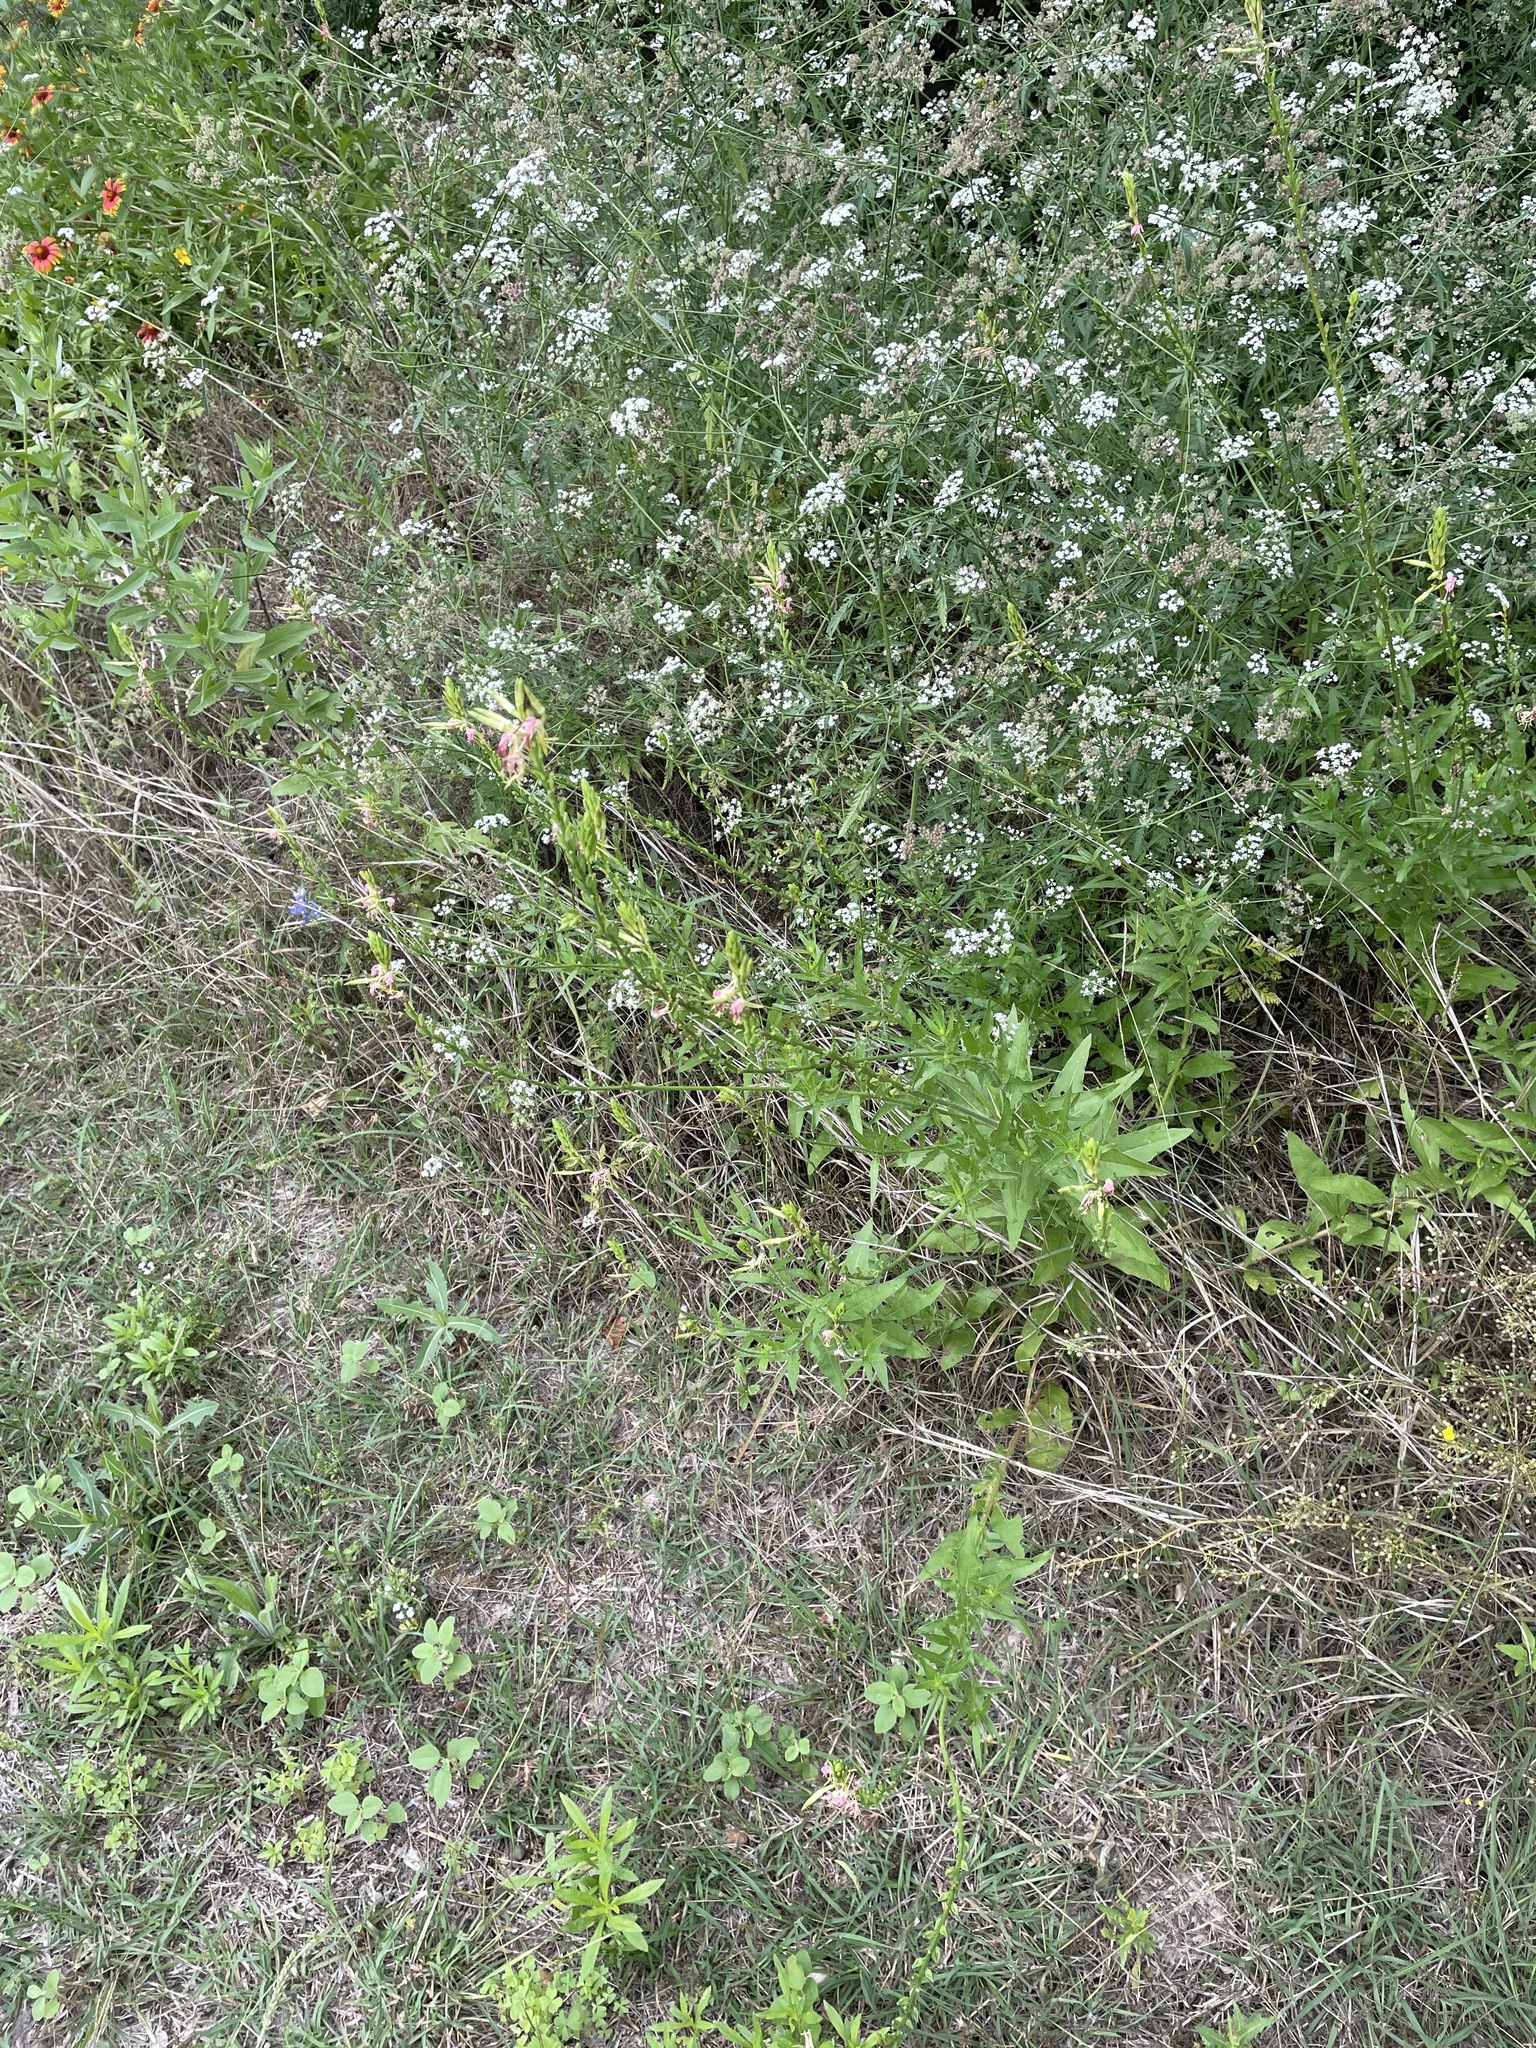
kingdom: Plantae
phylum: Tracheophyta
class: Magnoliopsida
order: Myrtales
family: Onagraceae
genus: Oenothera
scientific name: Oenothera suffulta
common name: Kisses
